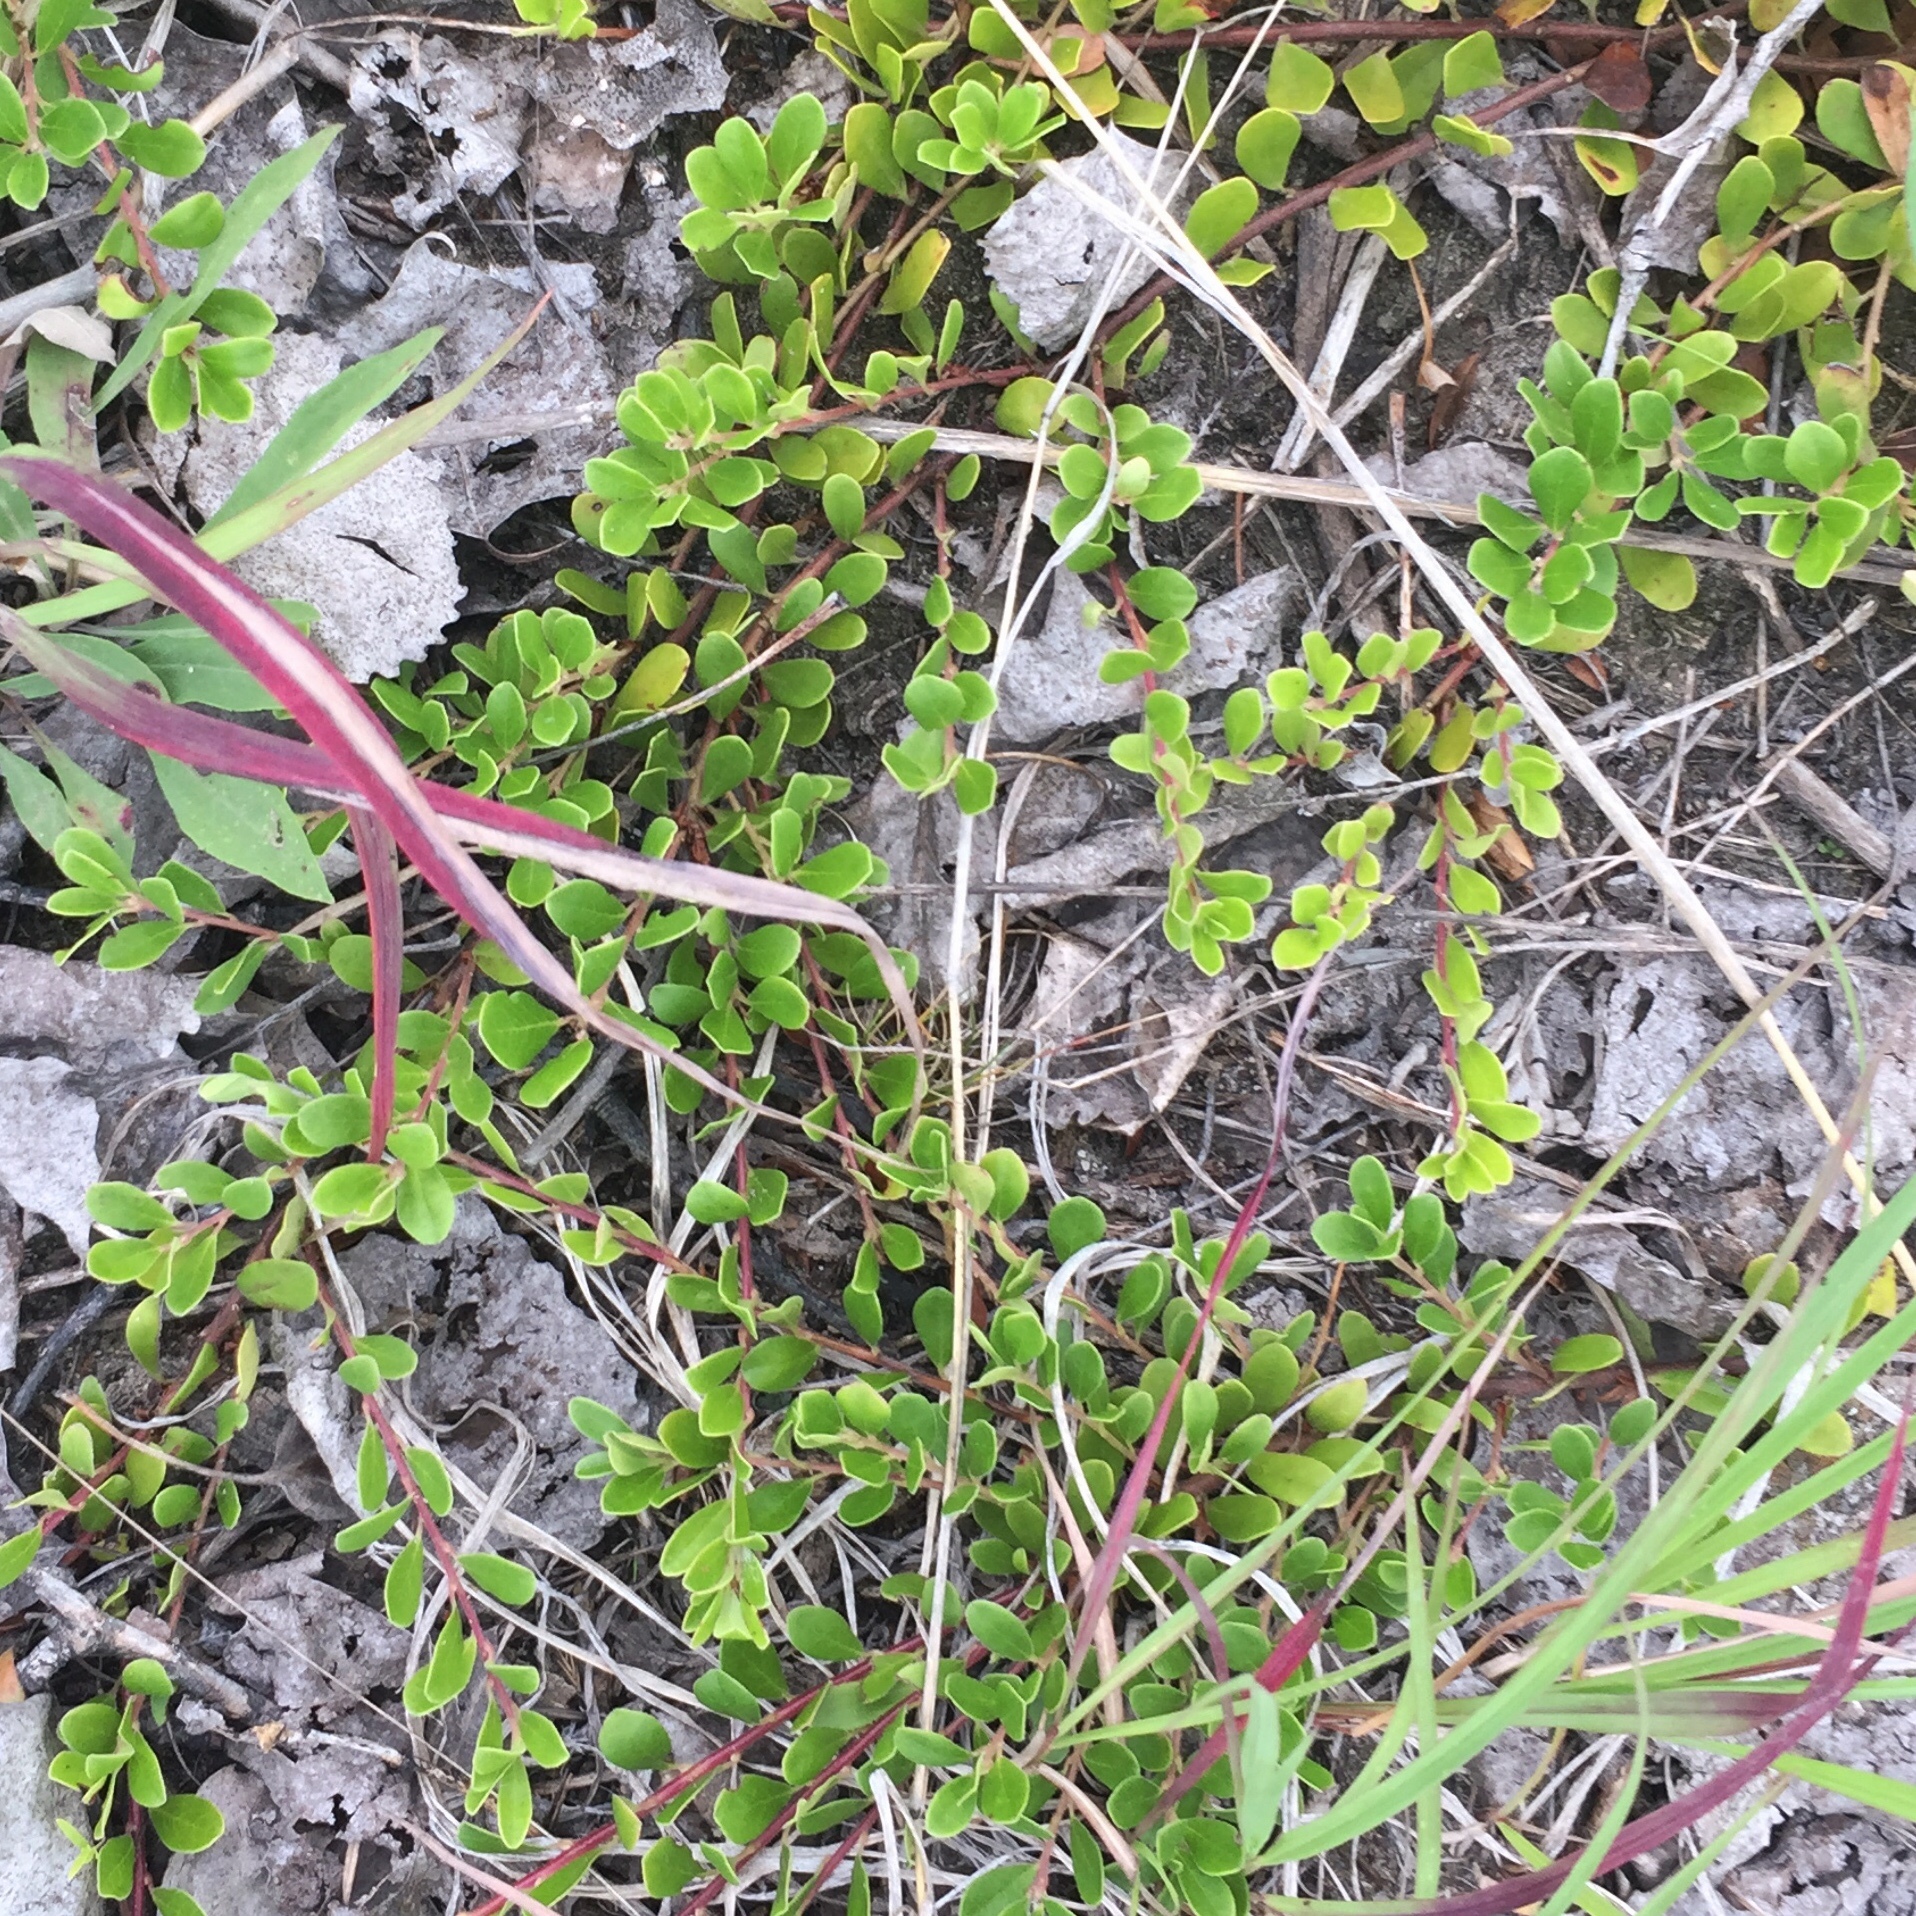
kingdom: Plantae
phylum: Tracheophyta
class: Magnoliopsida
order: Ericales
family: Ericaceae
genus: Arctostaphylos
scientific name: Arctostaphylos uva-ursi
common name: Bearberry
